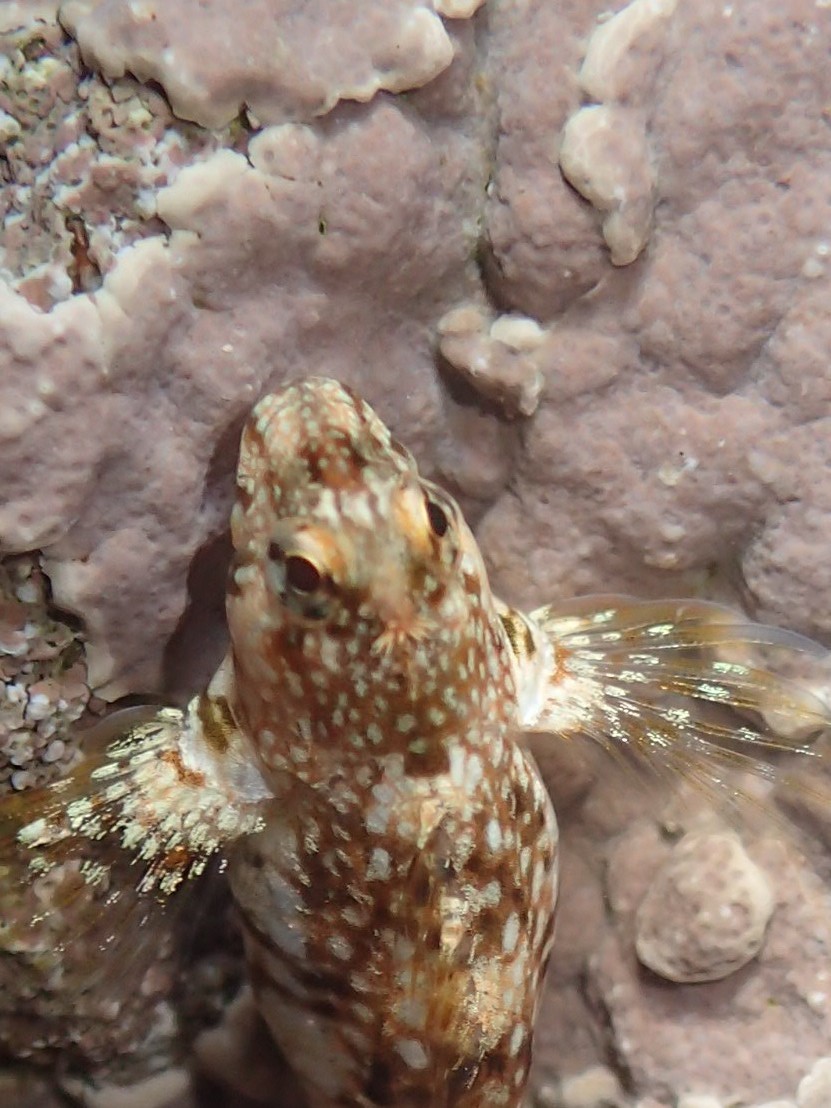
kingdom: Animalia
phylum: Chordata
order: Perciformes
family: Blenniidae
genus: Coryphoblennius
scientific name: Coryphoblennius galerita
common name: Montagu's blenny
